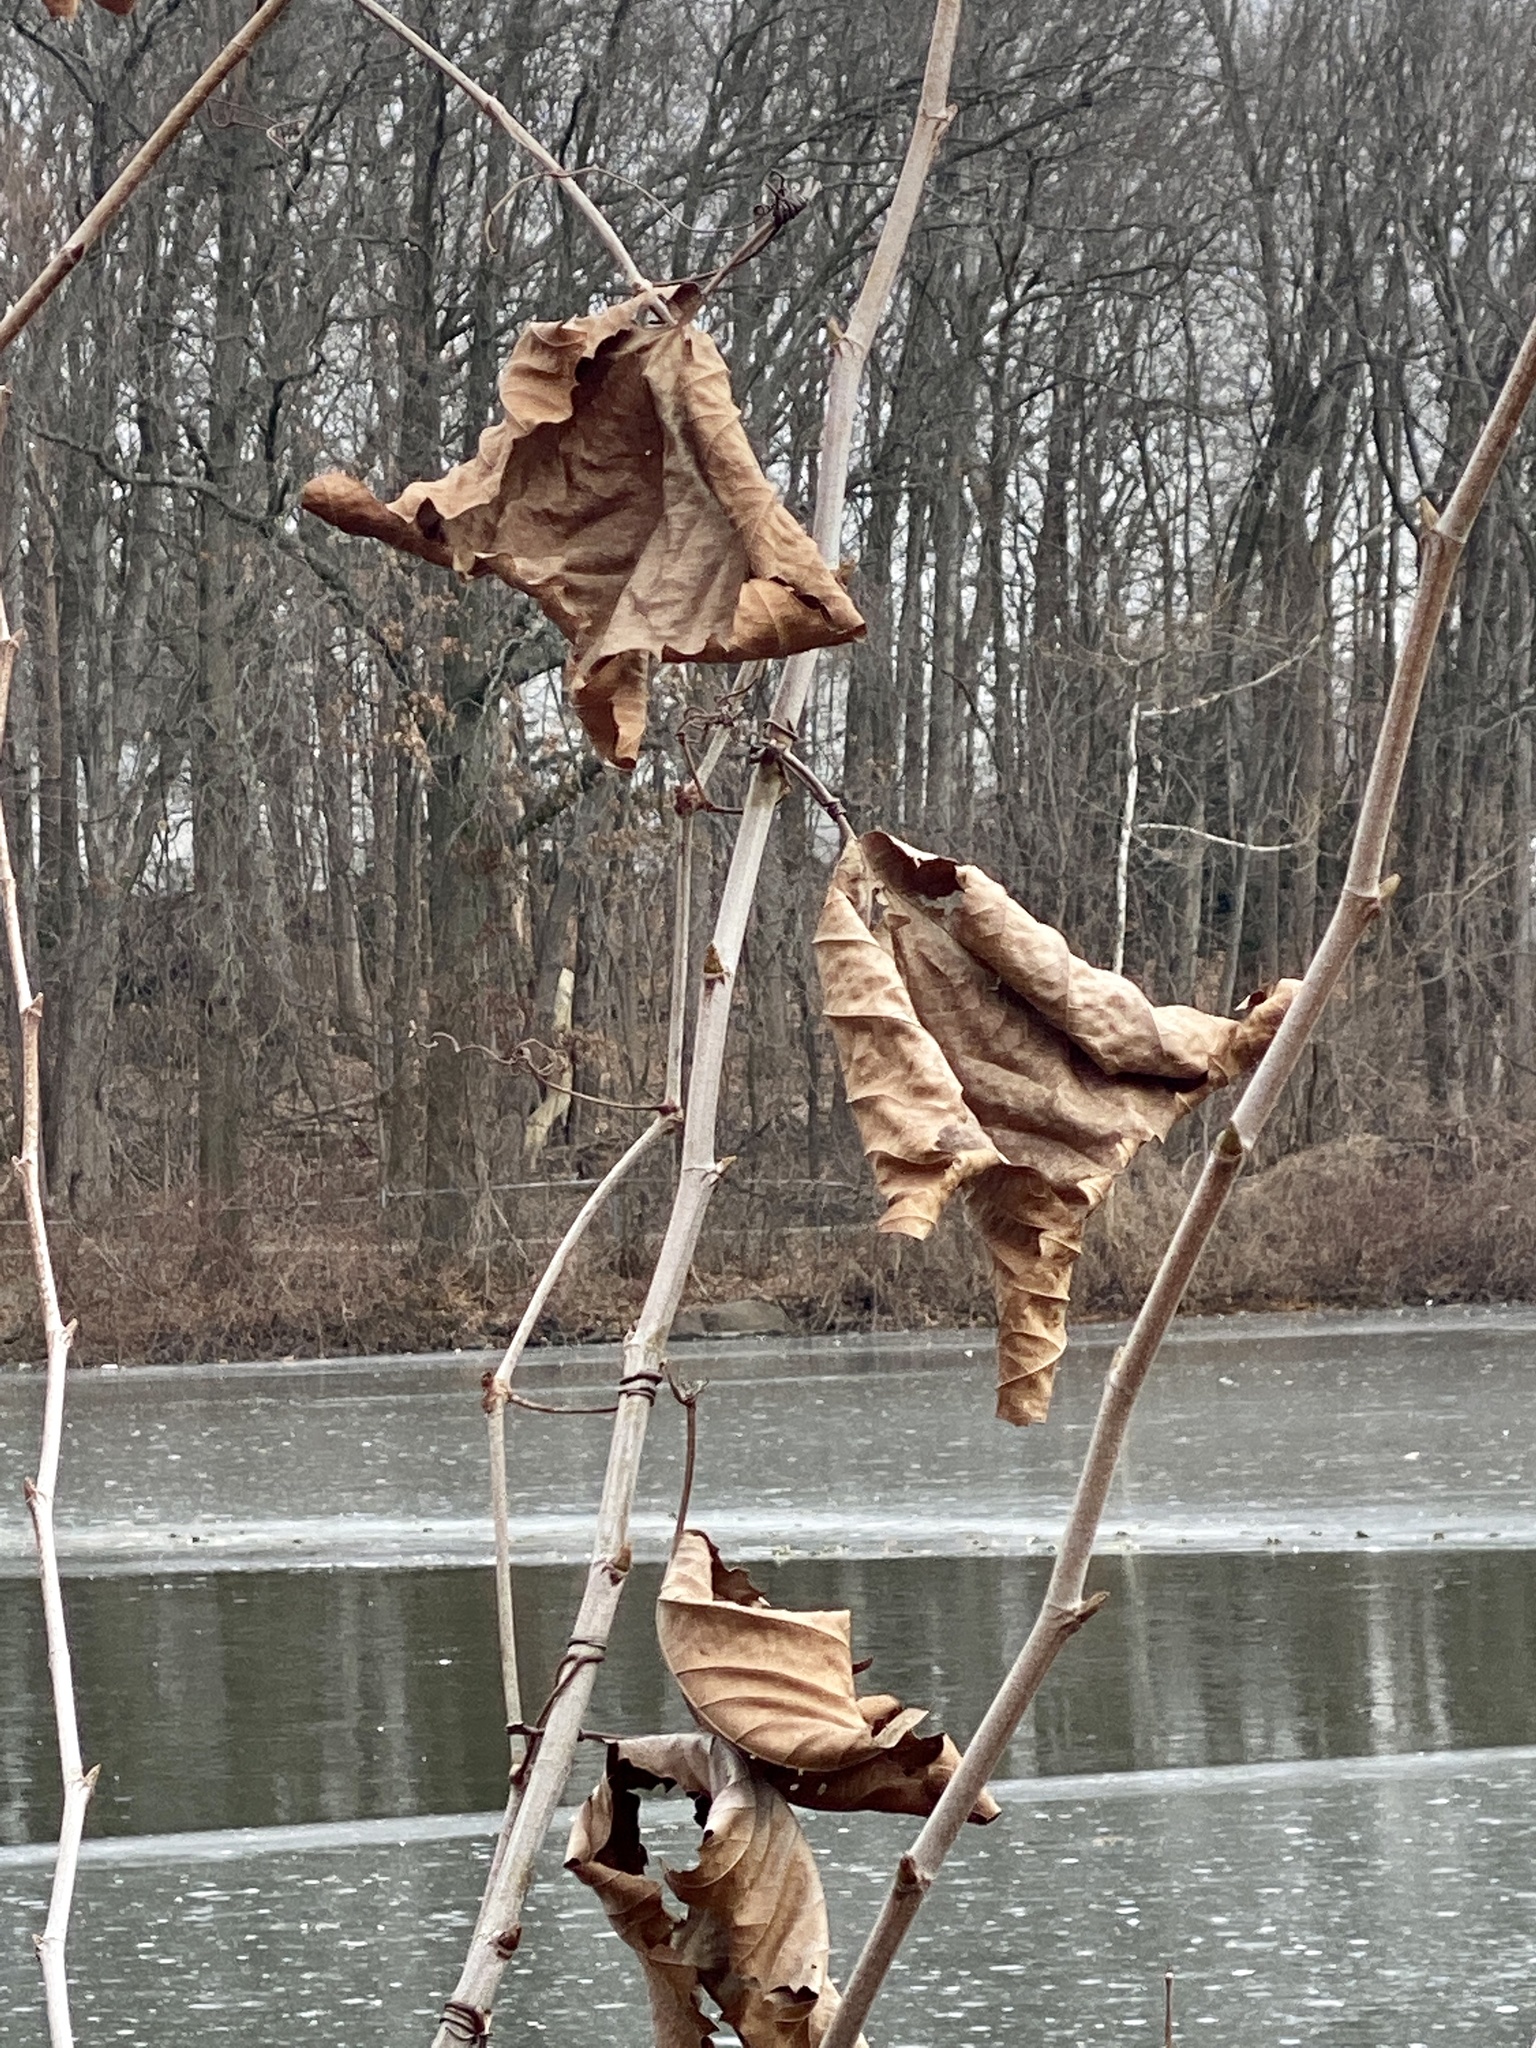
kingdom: Plantae
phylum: Tracheophyta
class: Magnoliopsida
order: Proteales
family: Platanaceae
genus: Platanus
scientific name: Platanus occidentalis
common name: American sycamore
